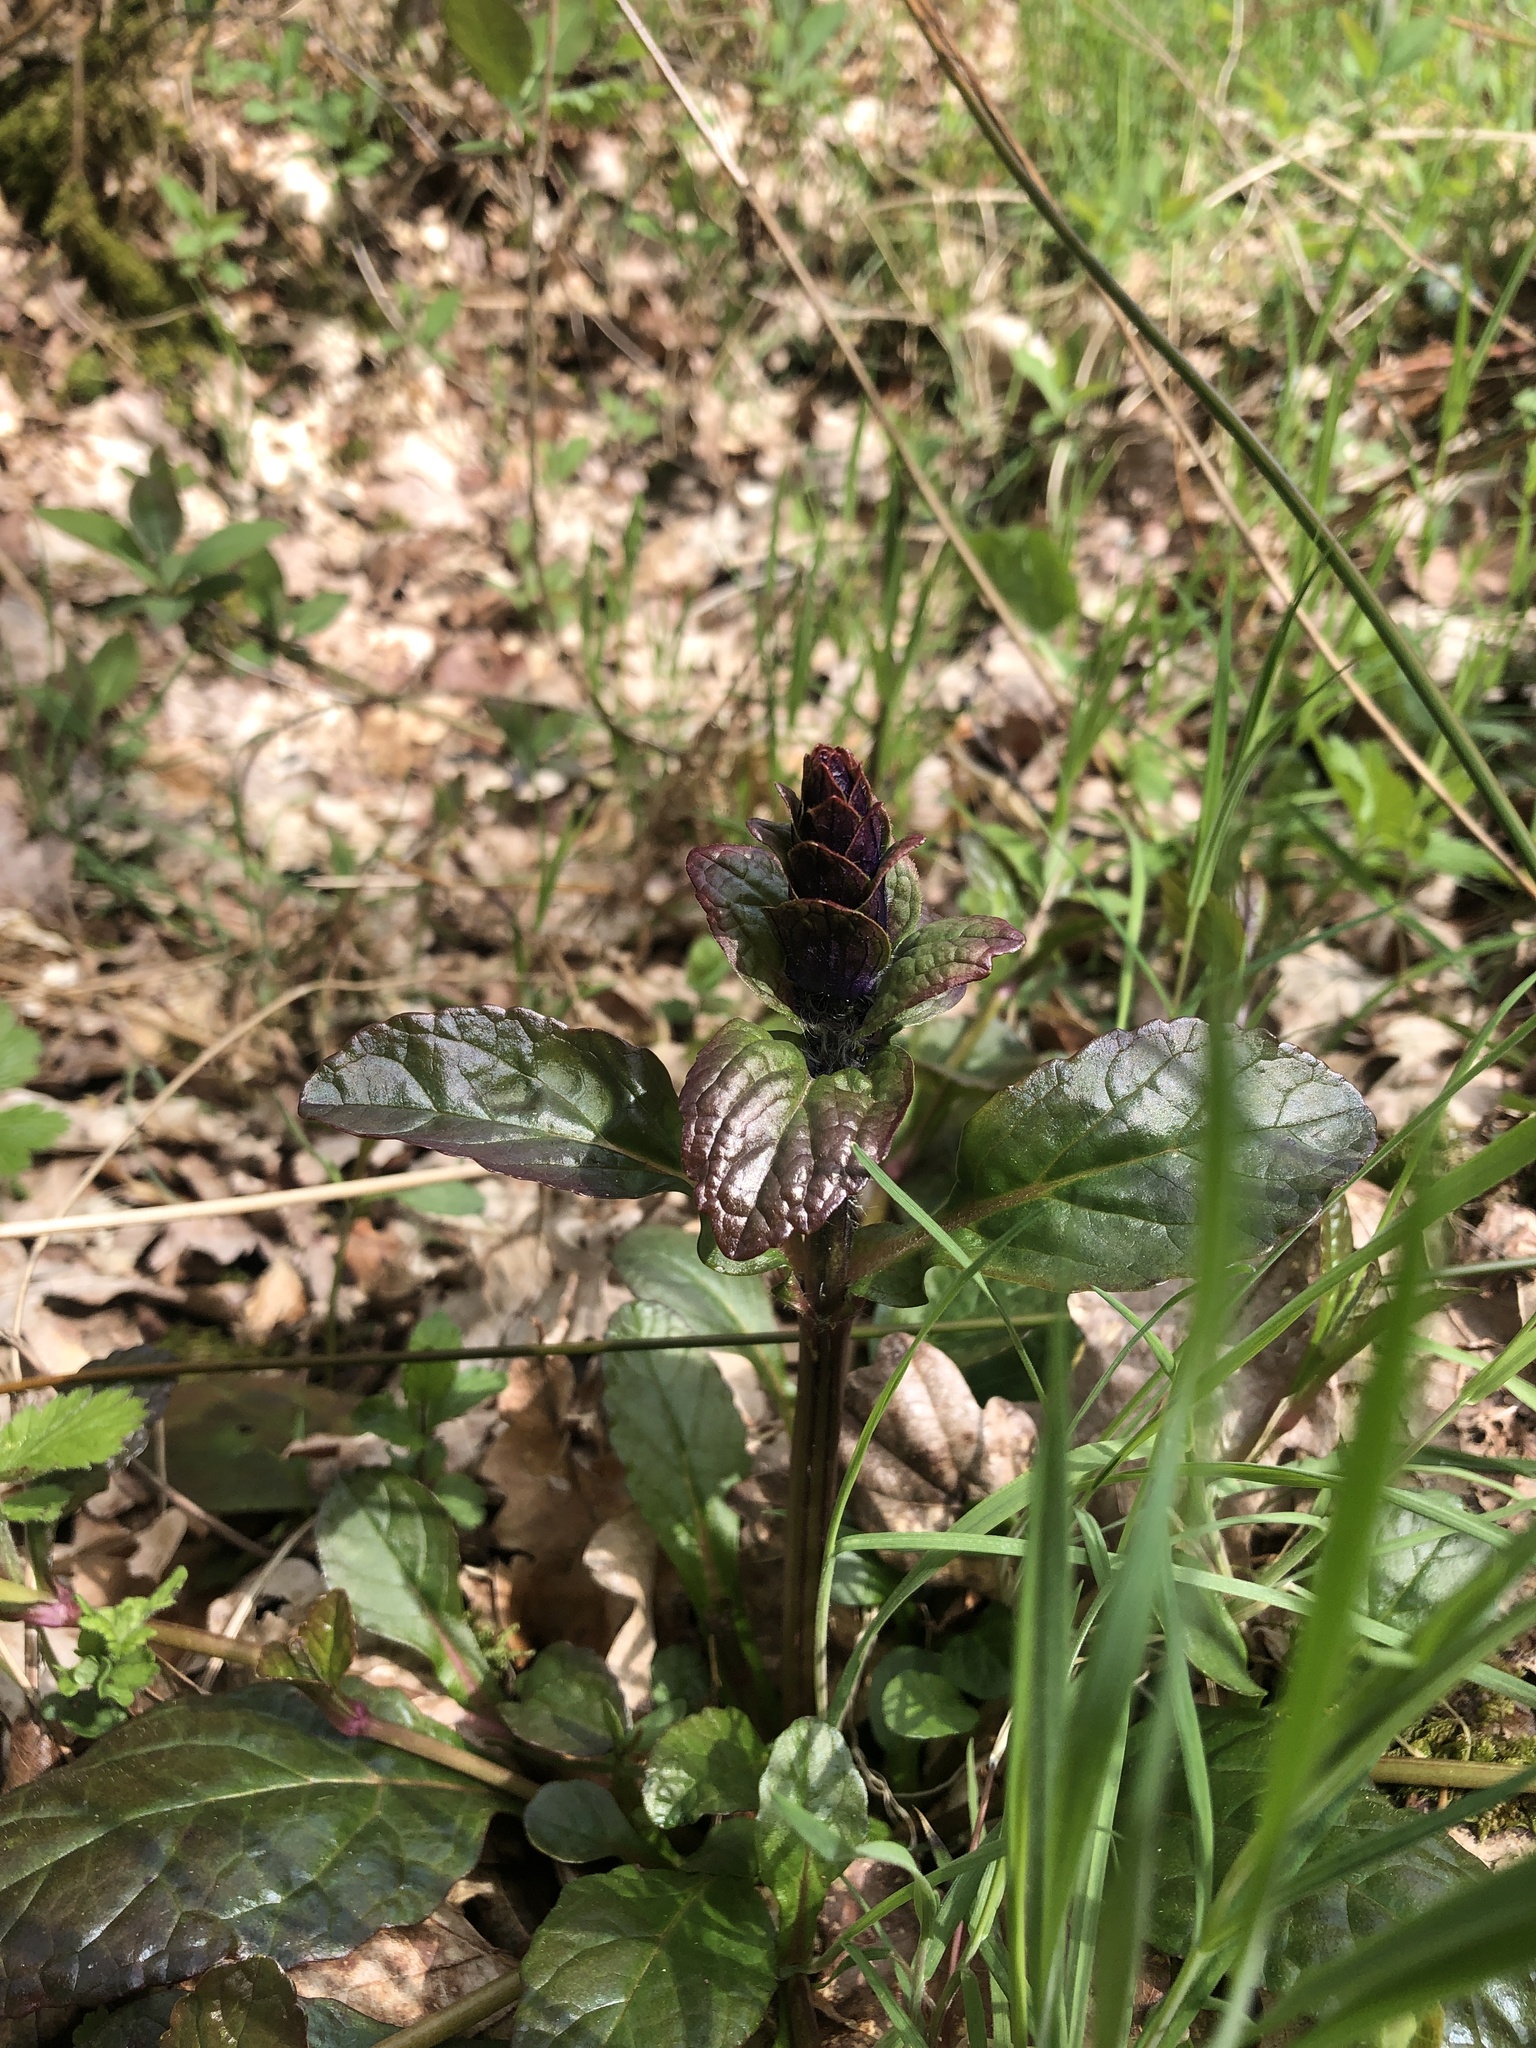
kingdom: Plantae
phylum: Tracheophyta
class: Magnoliopsida
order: Lamiales
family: Lamiaceae
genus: Ajuga
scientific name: Ajuga reptans
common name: Bugle
